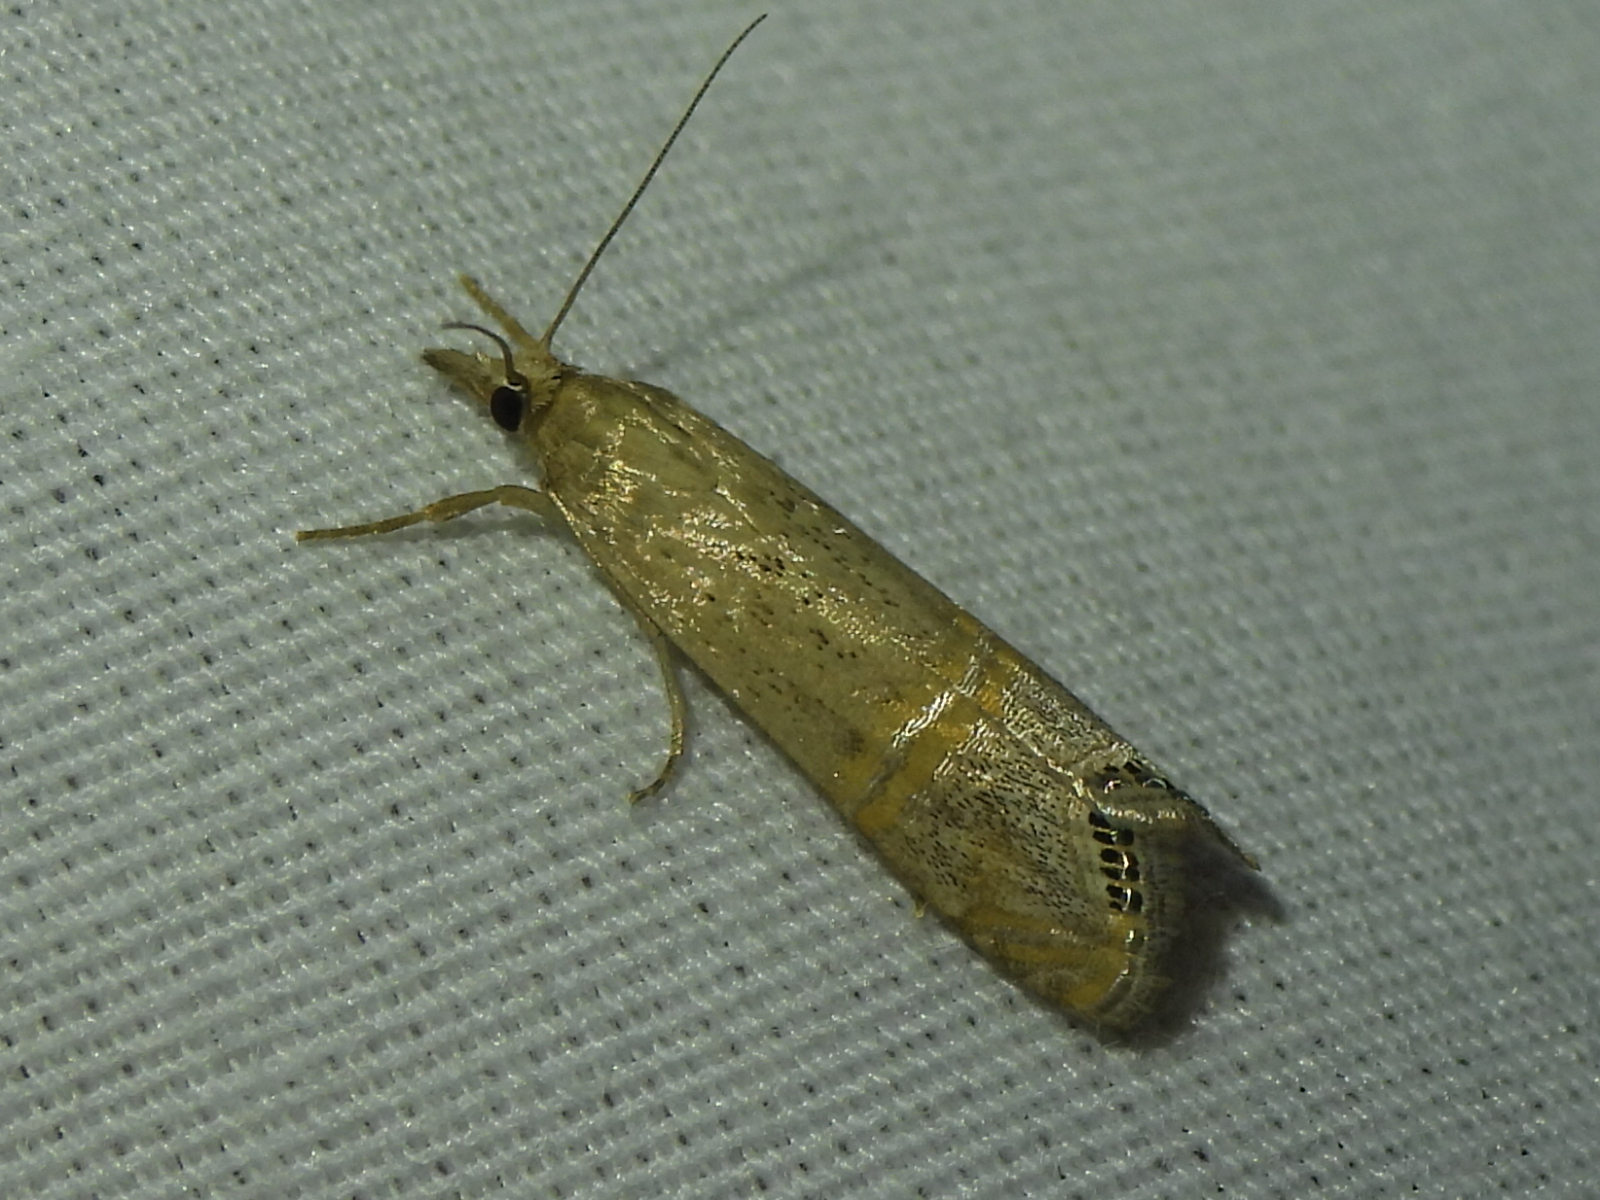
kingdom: Animalia
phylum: Arthropoda
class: Insecta
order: Lepidoptera
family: Crambidae
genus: Euchromius
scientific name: Euchromius ocellea
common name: Necklace veneer moth
